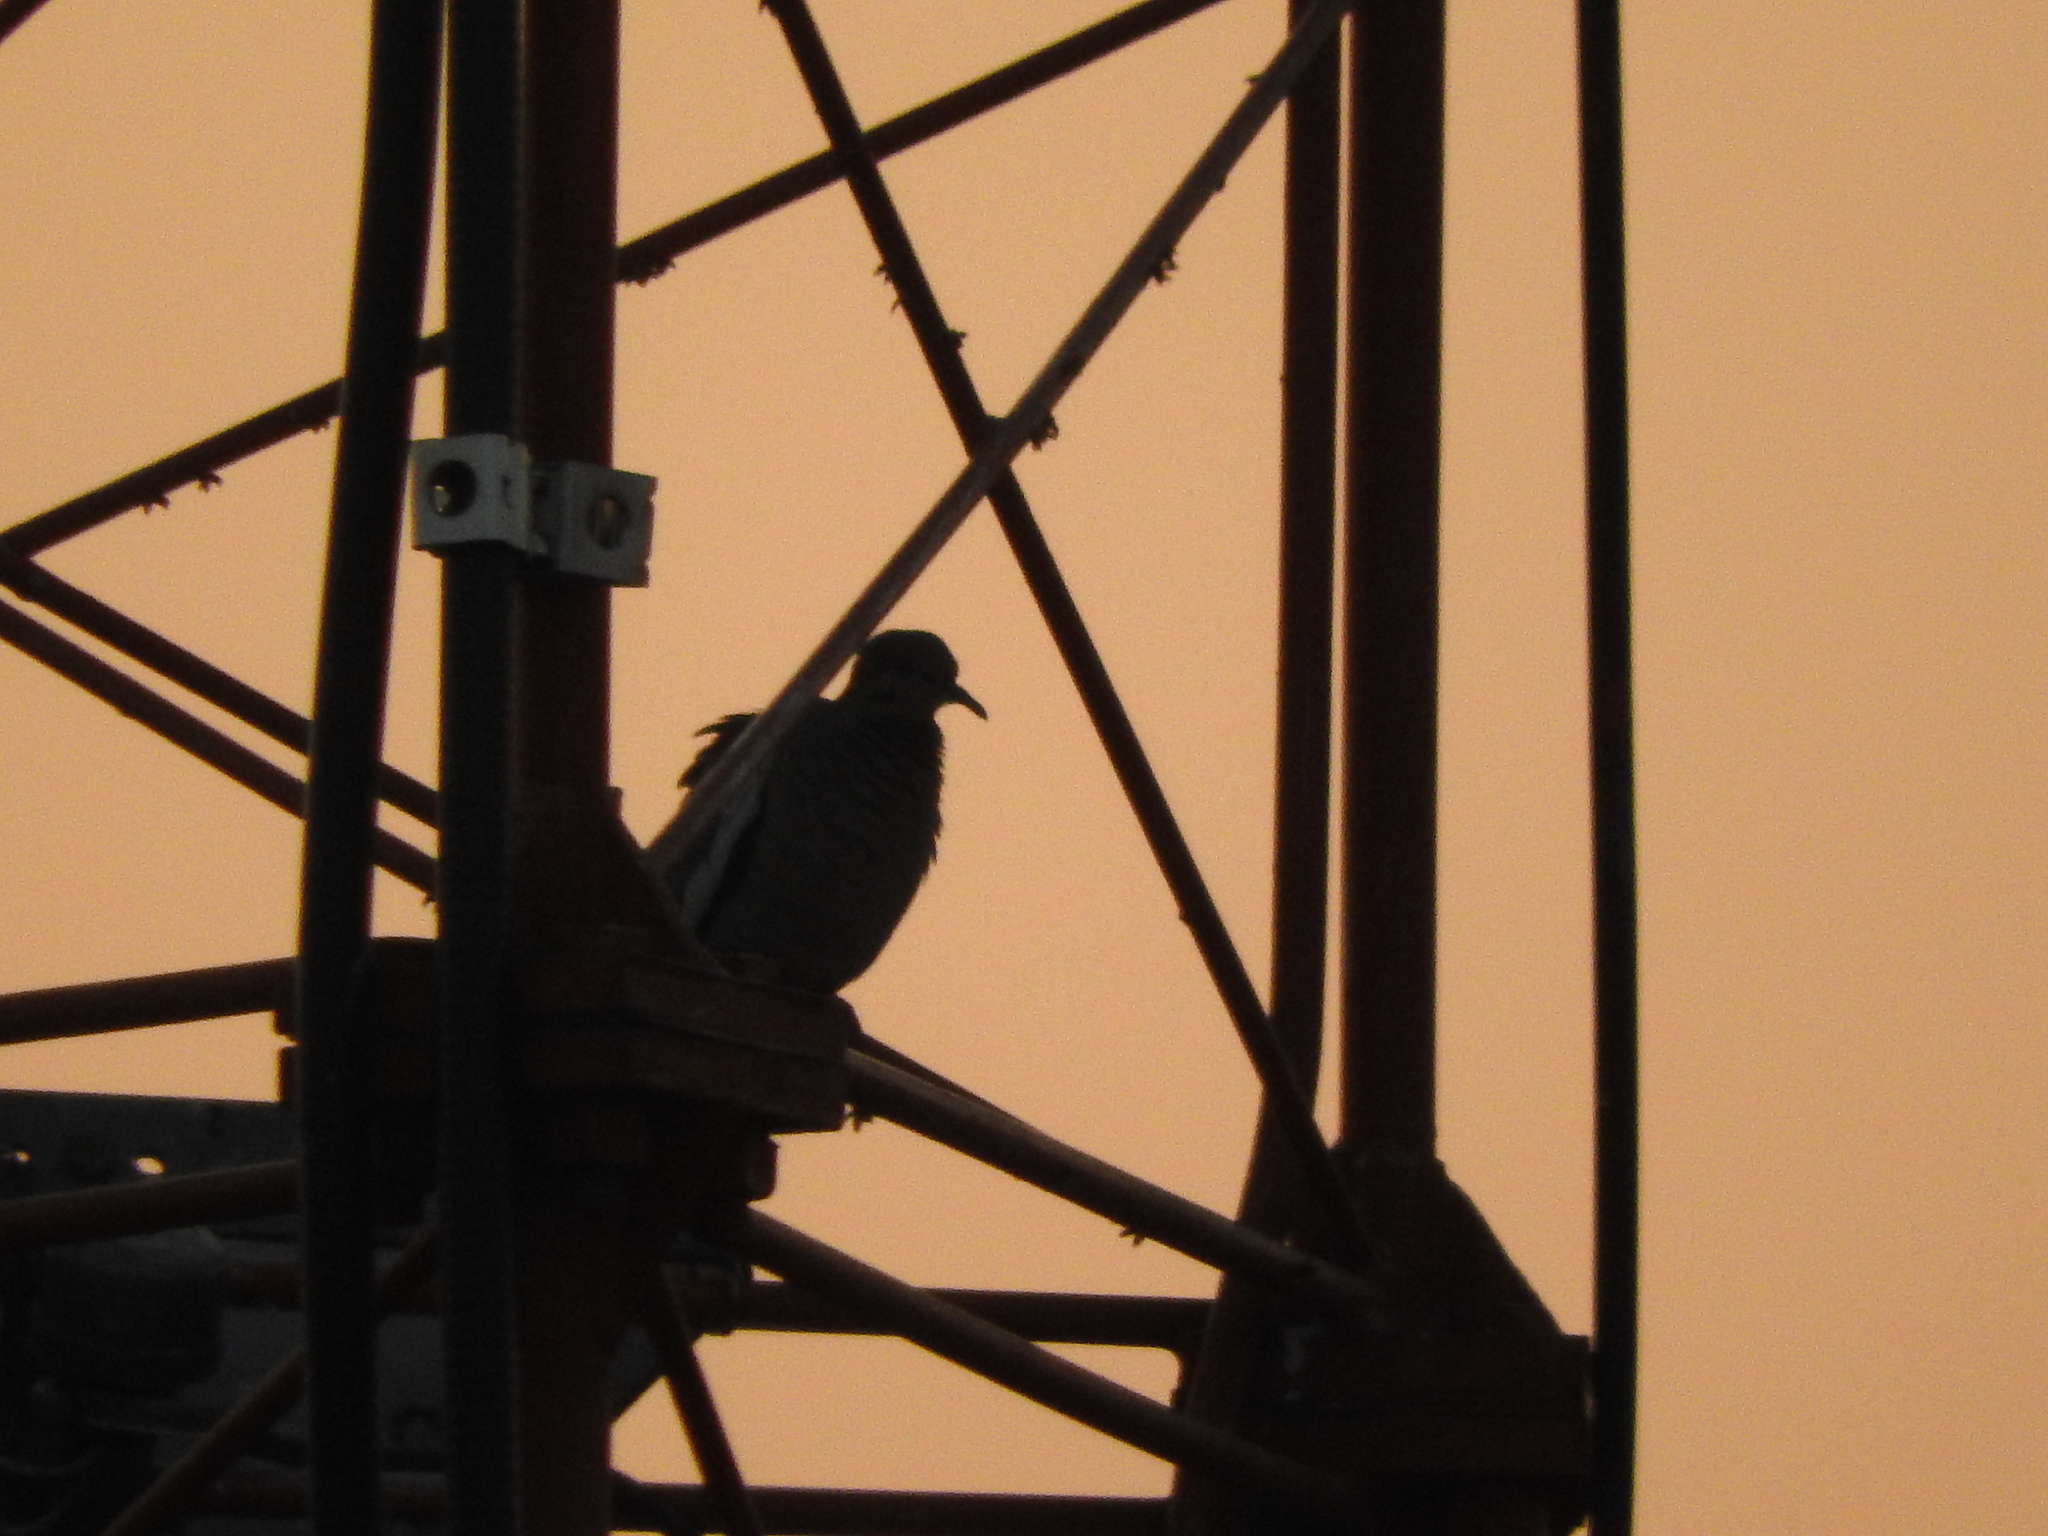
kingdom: Animalia
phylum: Chordata
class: Aves
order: Columbiformes
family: Columbidae
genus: Zenaida
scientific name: Zenaida asiatica
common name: White-winged dove
